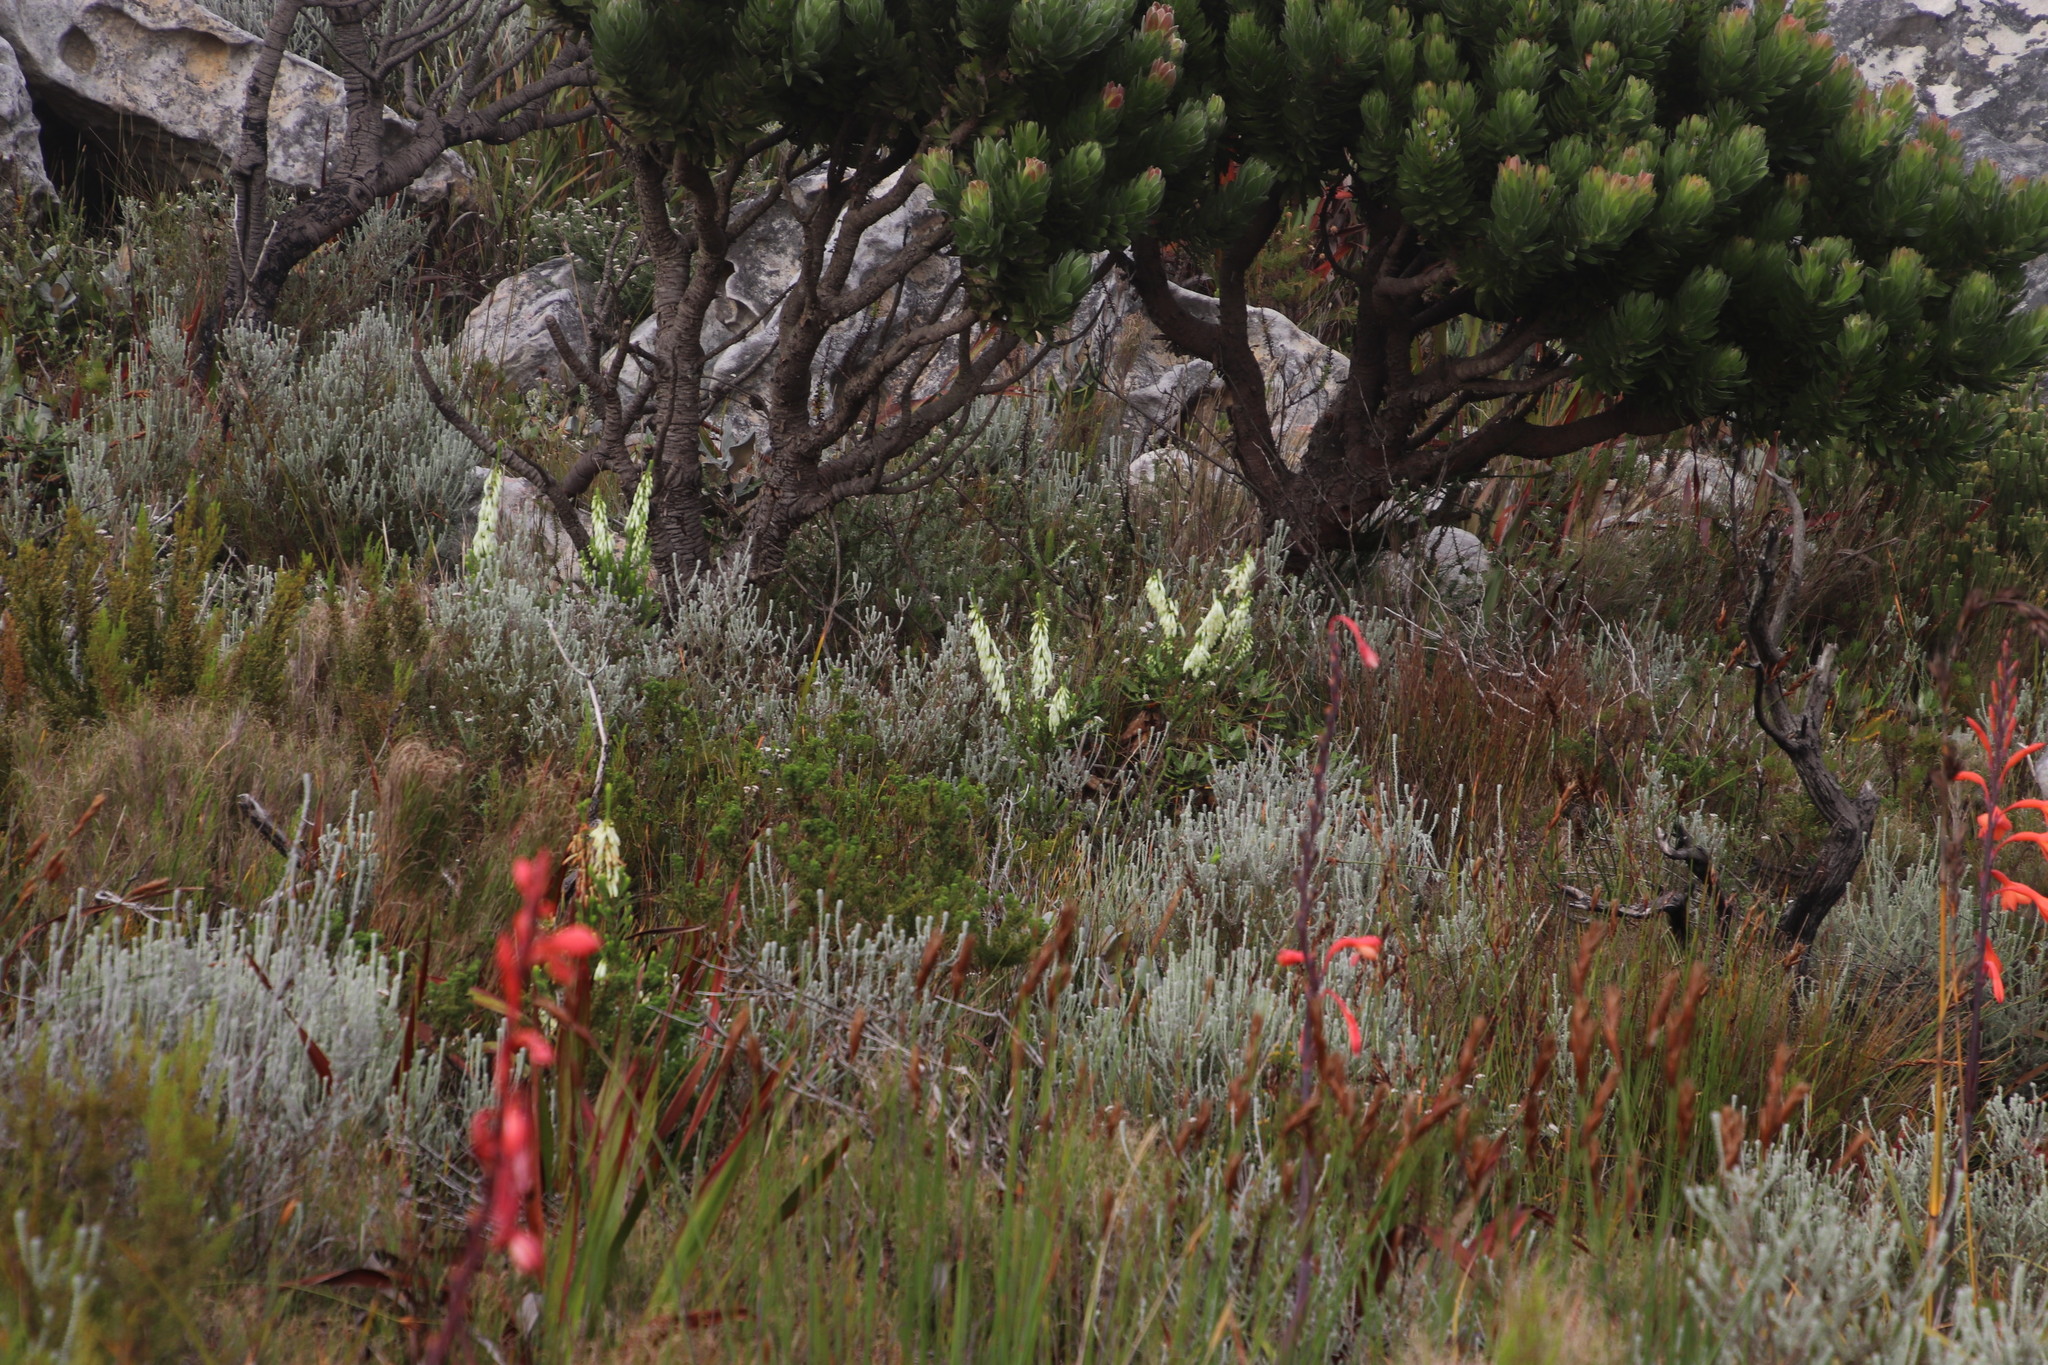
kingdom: Plantae
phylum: Tracheophyta
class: Magnoliopsida
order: Ericales
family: Ericaceae
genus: Erica
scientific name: Erica mammosa
